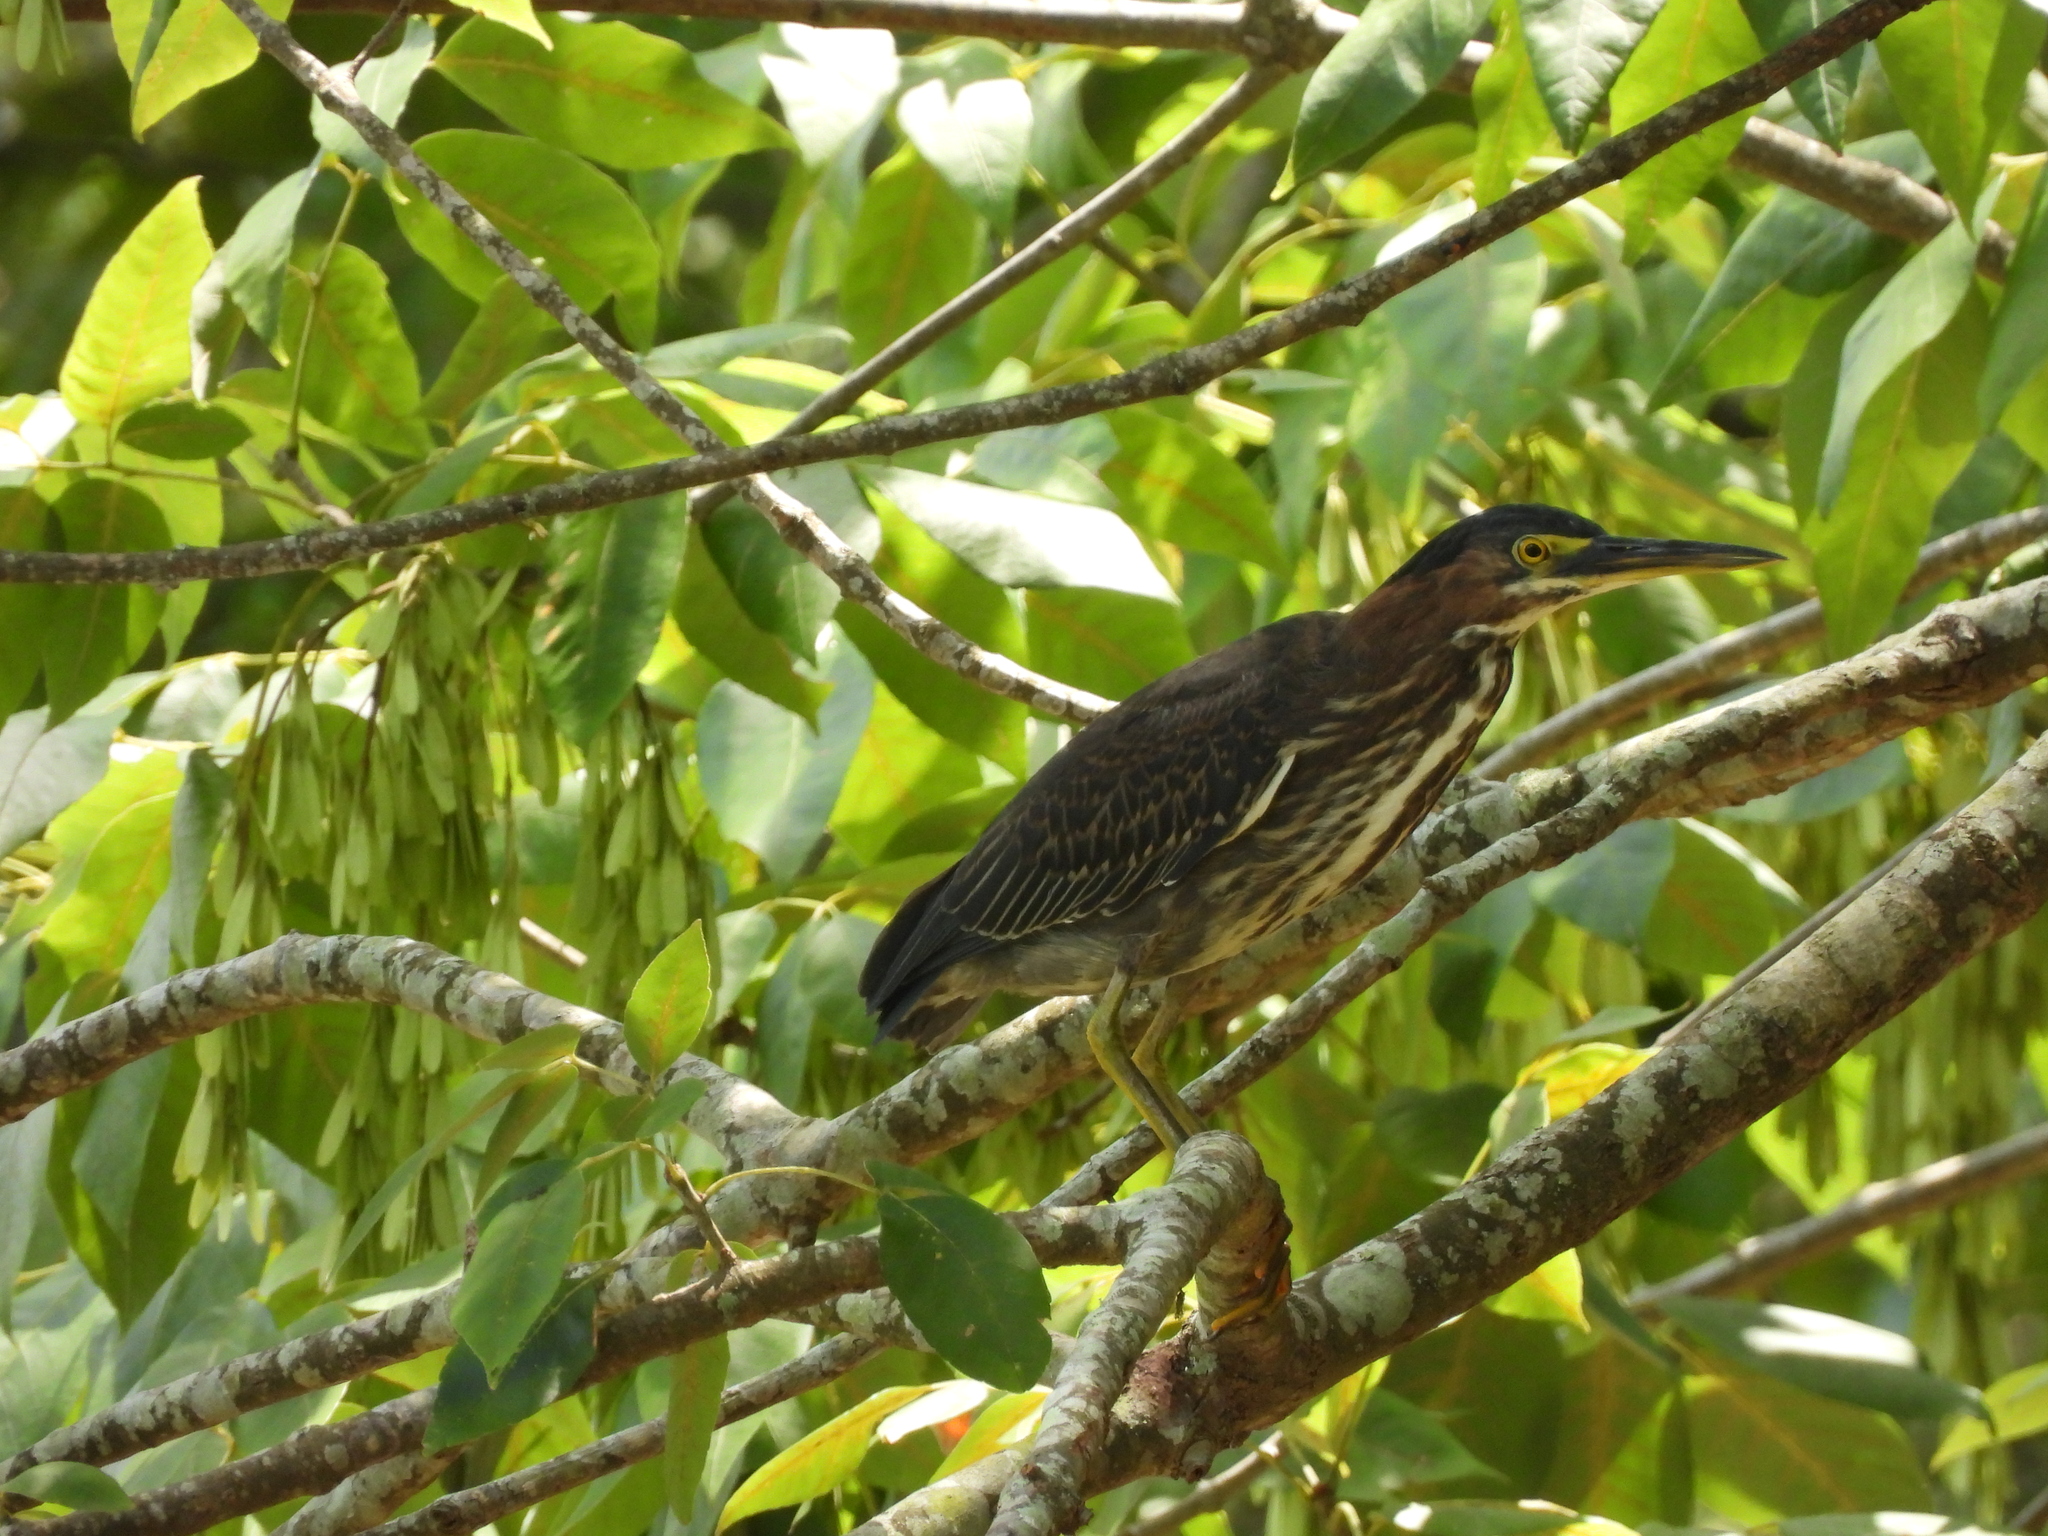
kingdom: Animalia
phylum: Chordata
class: Aves
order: Pelecaniformes
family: Ardeidae
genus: Butorides
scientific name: Butorides virescens
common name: Green heron
